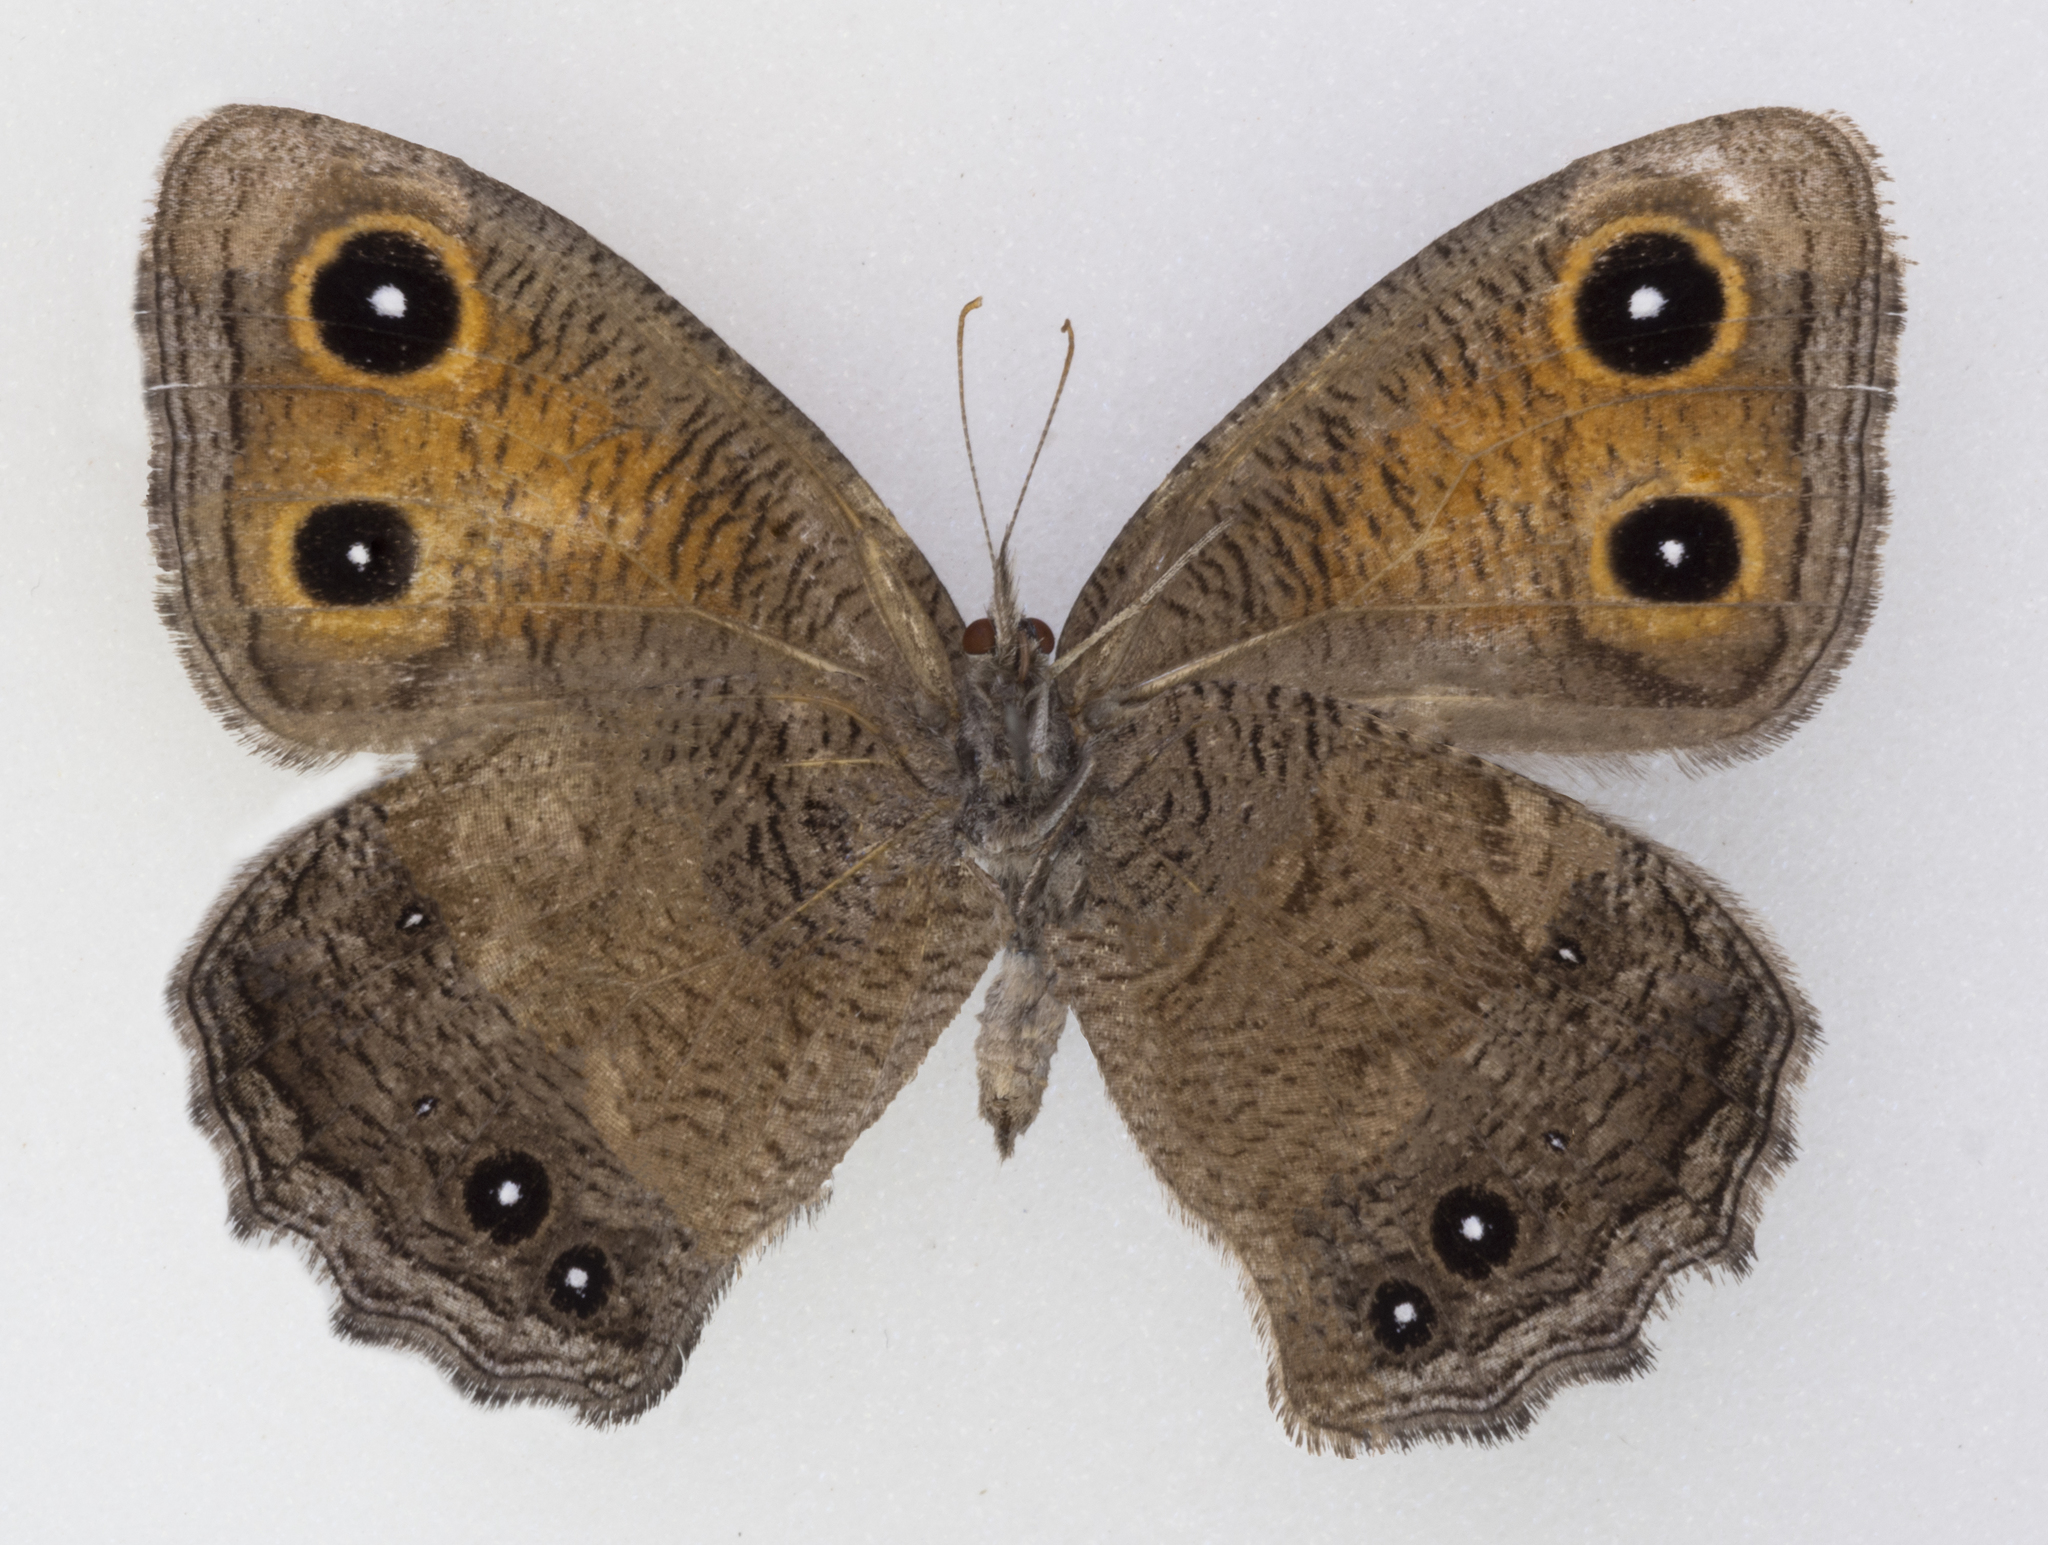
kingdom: Animalia
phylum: Arthropoda
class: Insecta
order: Lepidoptera
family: Nymphalidae
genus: Cercyonis
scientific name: Cercyonis meadi
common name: Mead's wood-nymph
